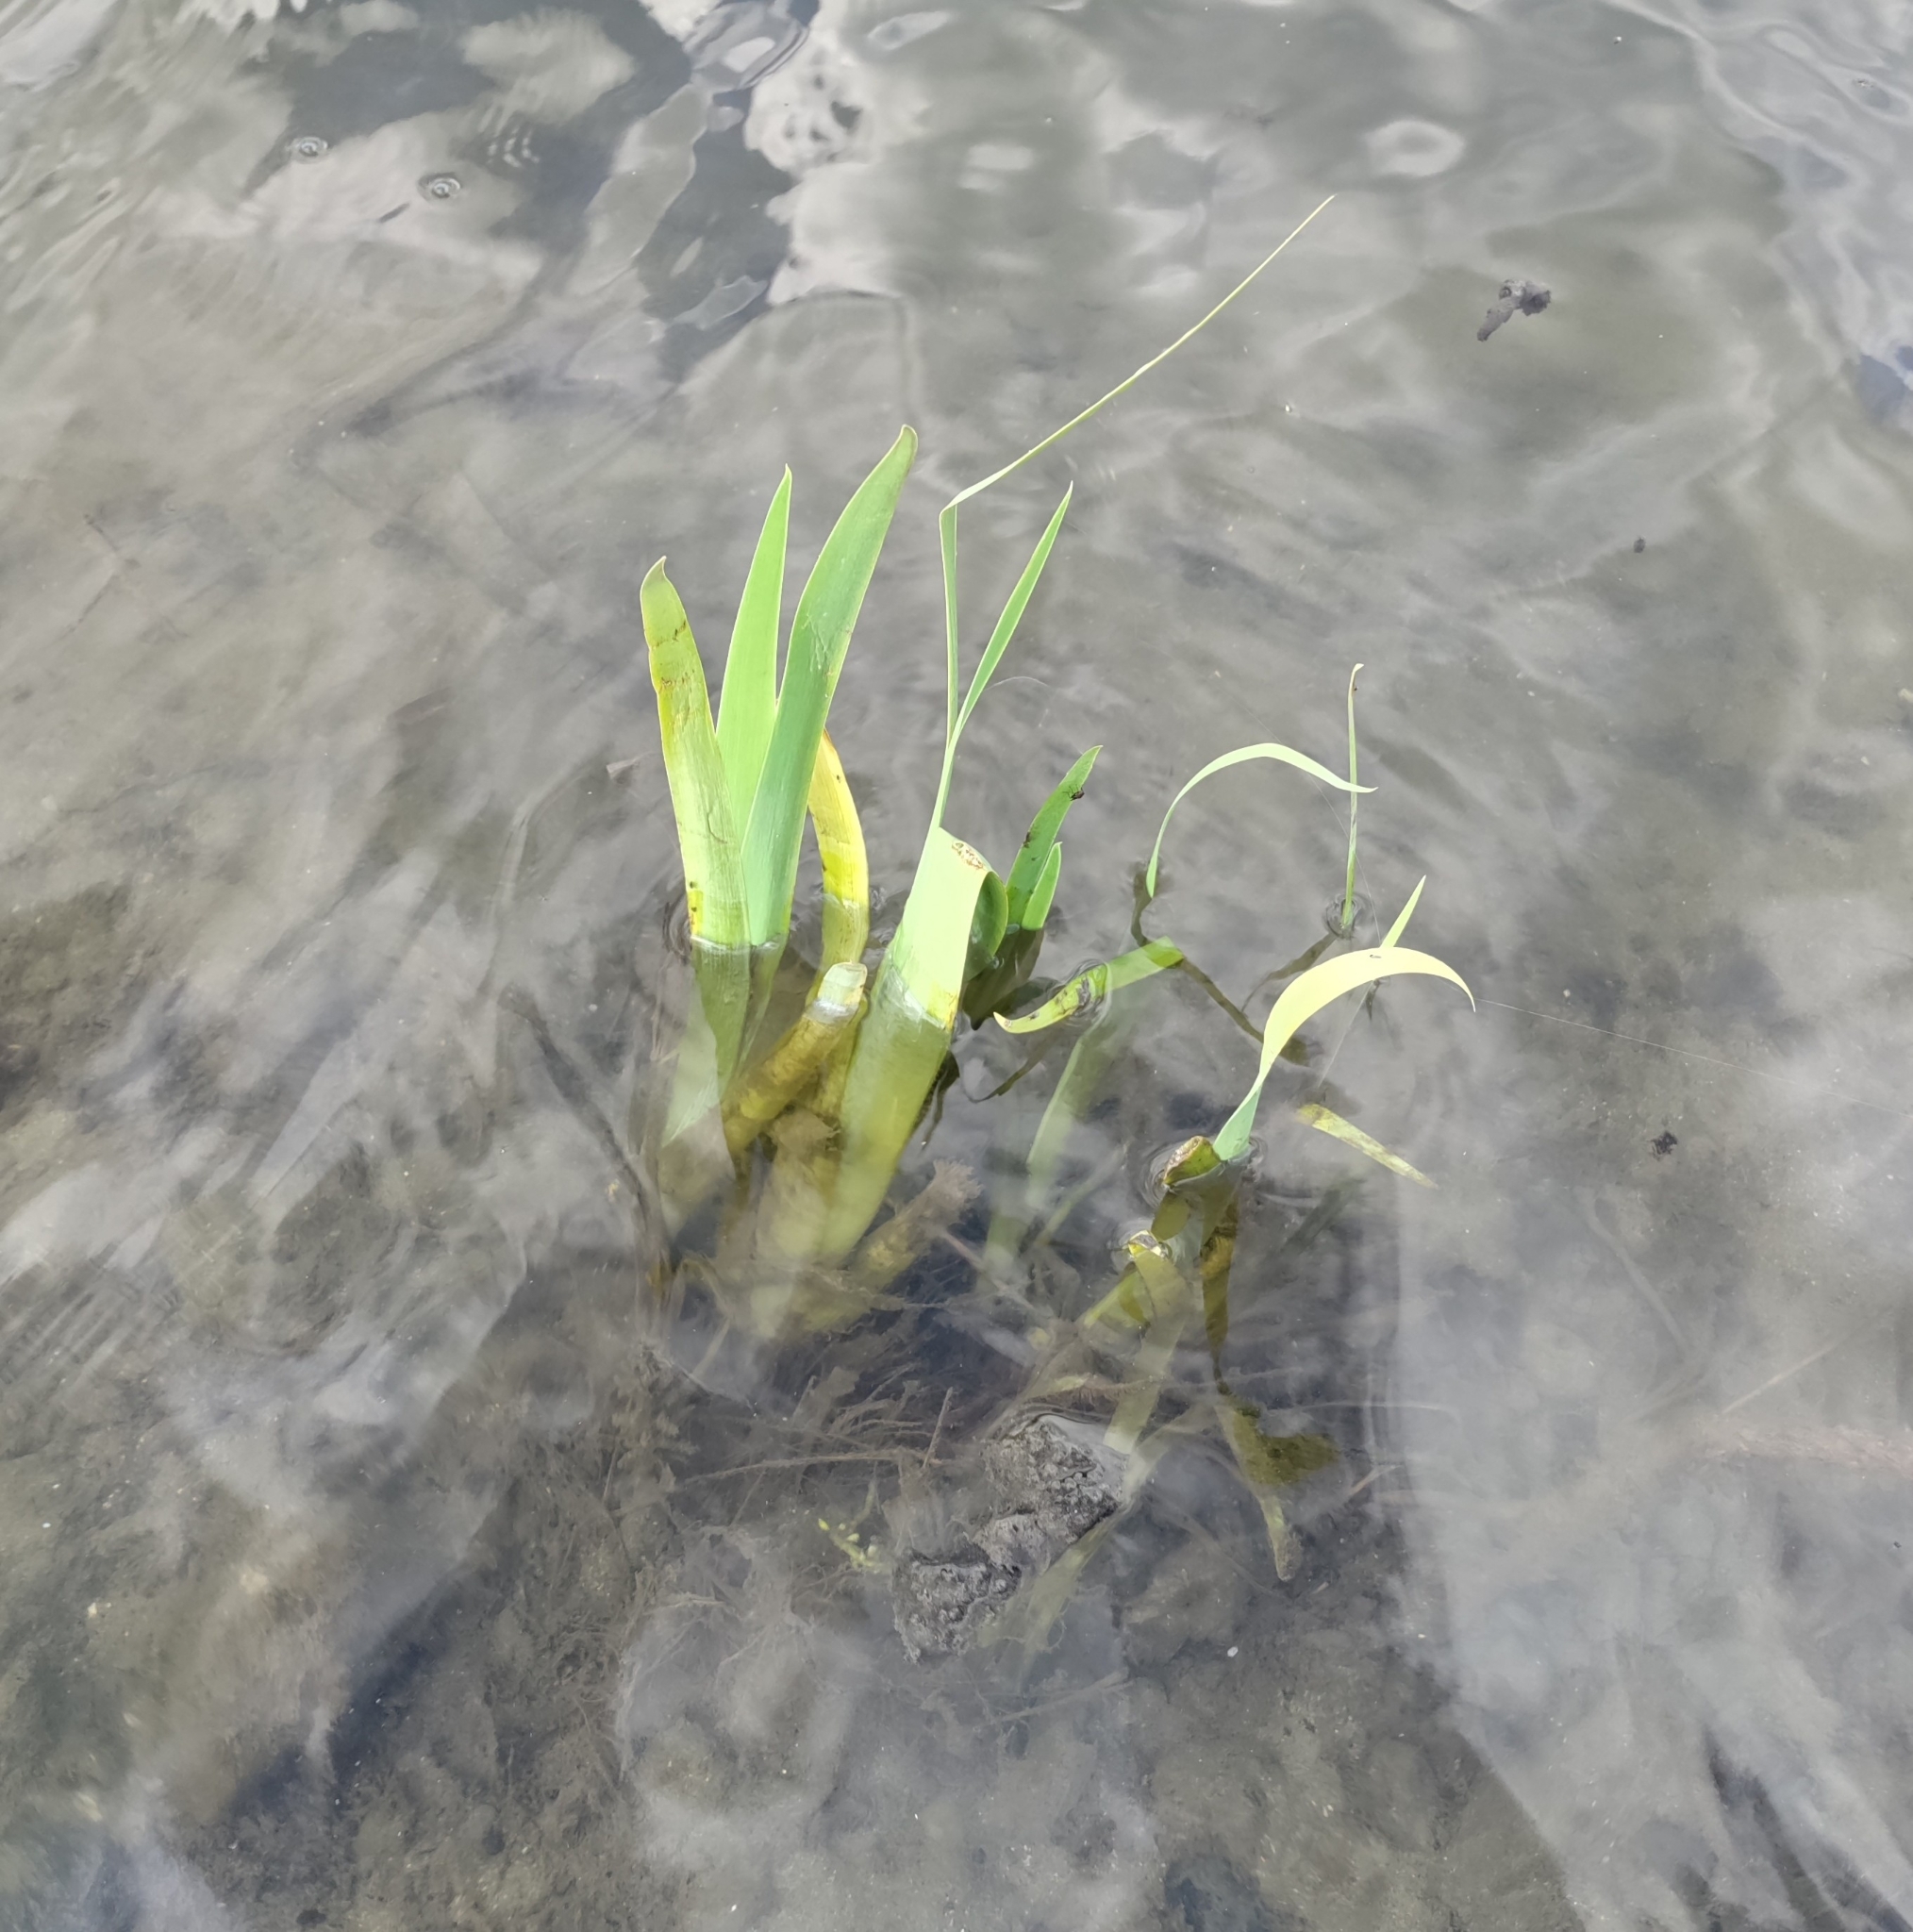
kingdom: Plantae
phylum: Tracheophyta
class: Liliopsida
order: Asparagales
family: Iridaceae
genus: Iris
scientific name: Iris pseudacorus
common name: Yellow flag
